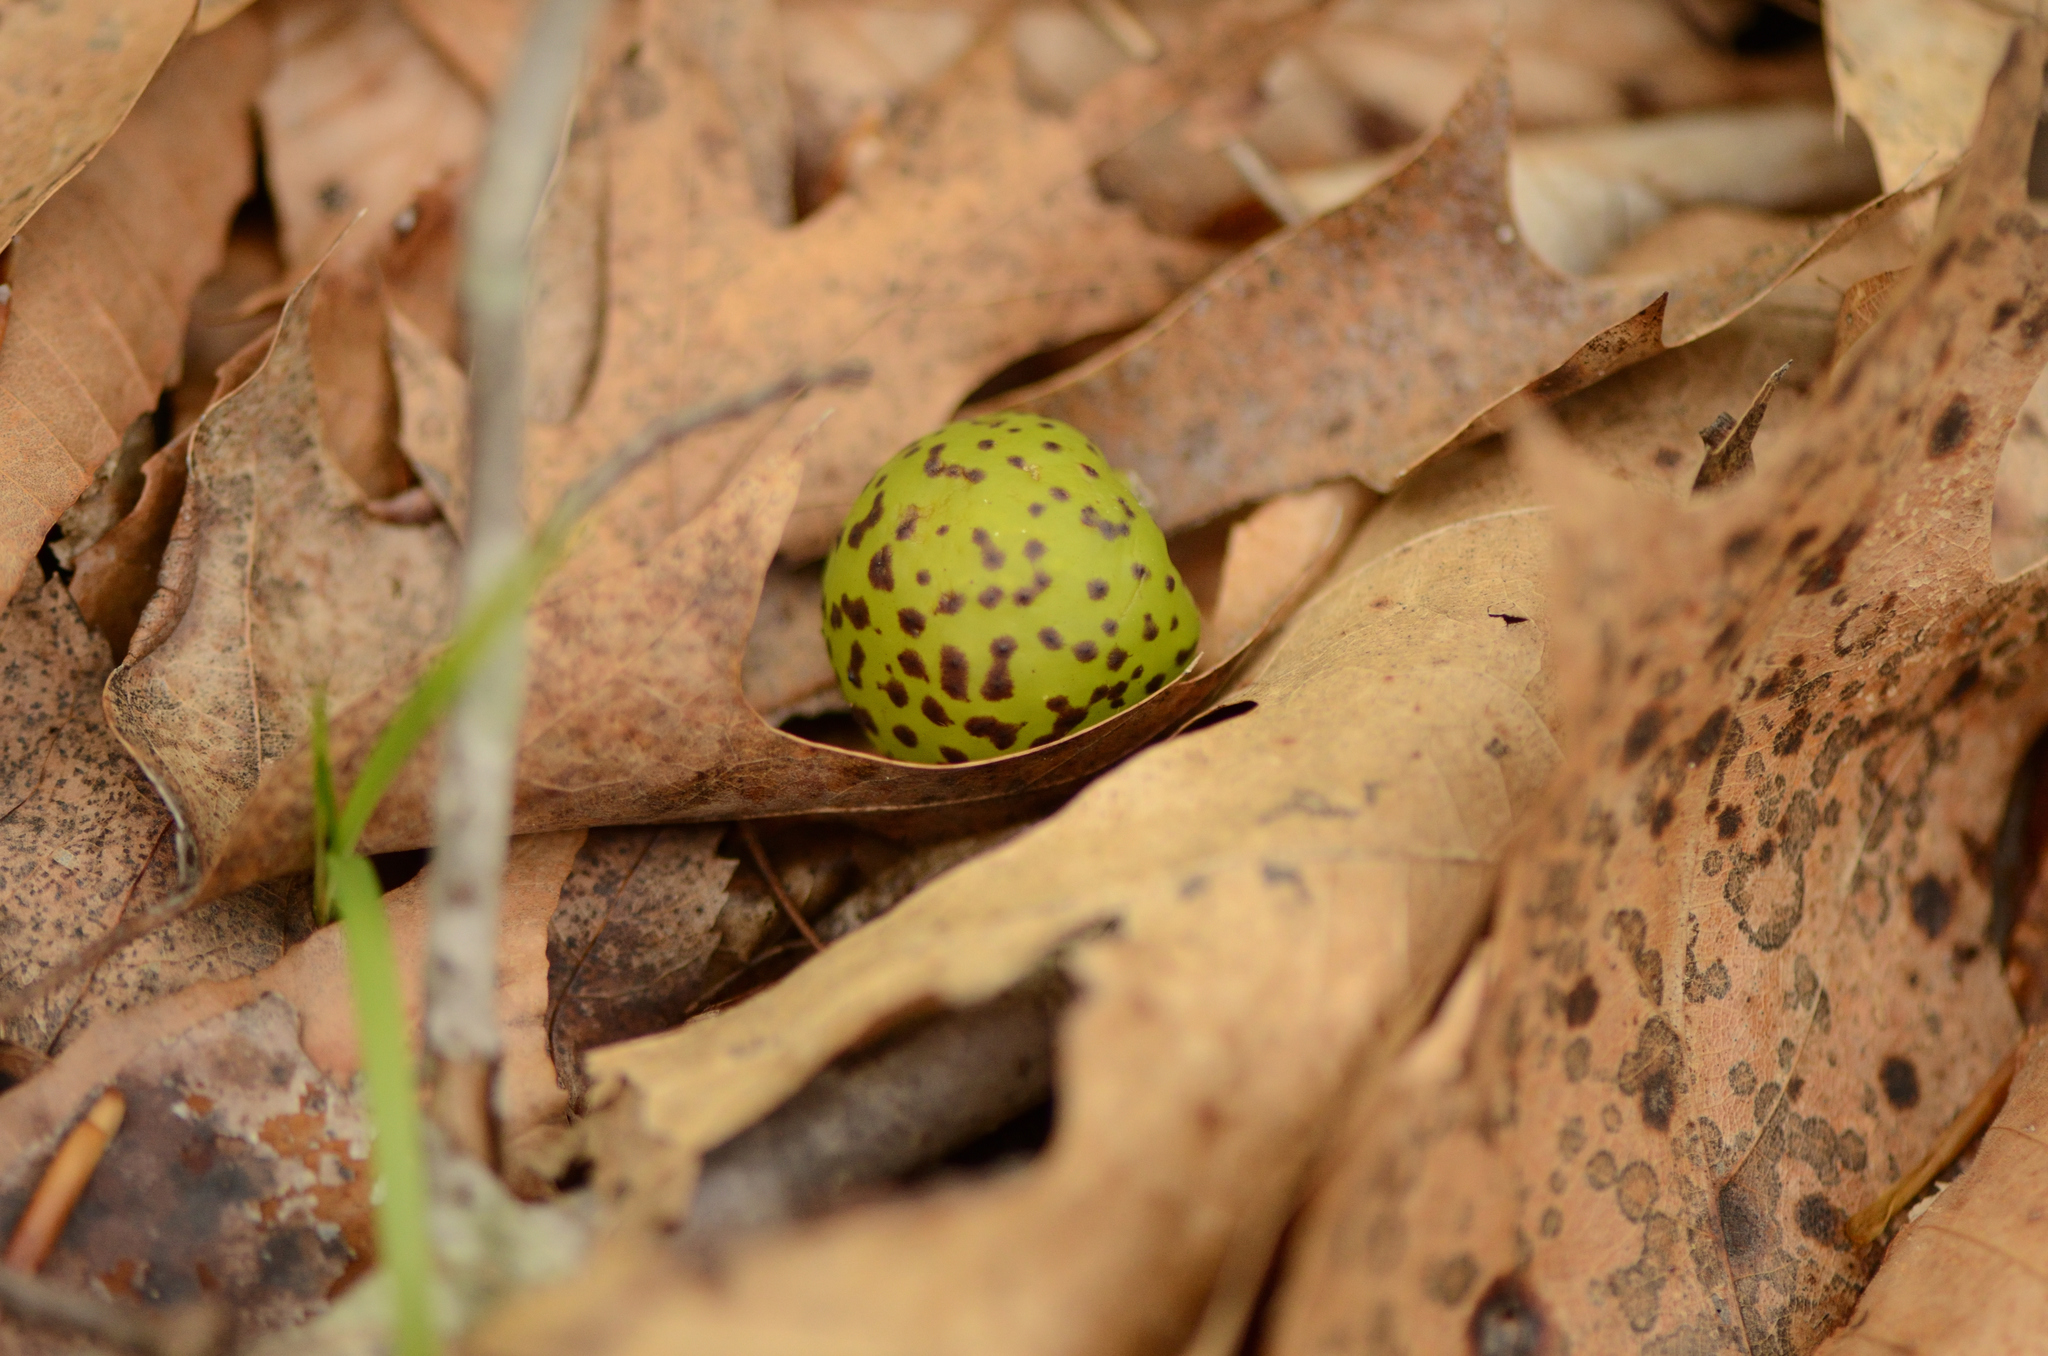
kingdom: Animalia
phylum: Arthropoda
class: Insecta
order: Hymenoptera
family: Cynipidae
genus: Amphibolips
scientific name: Amphibolips
